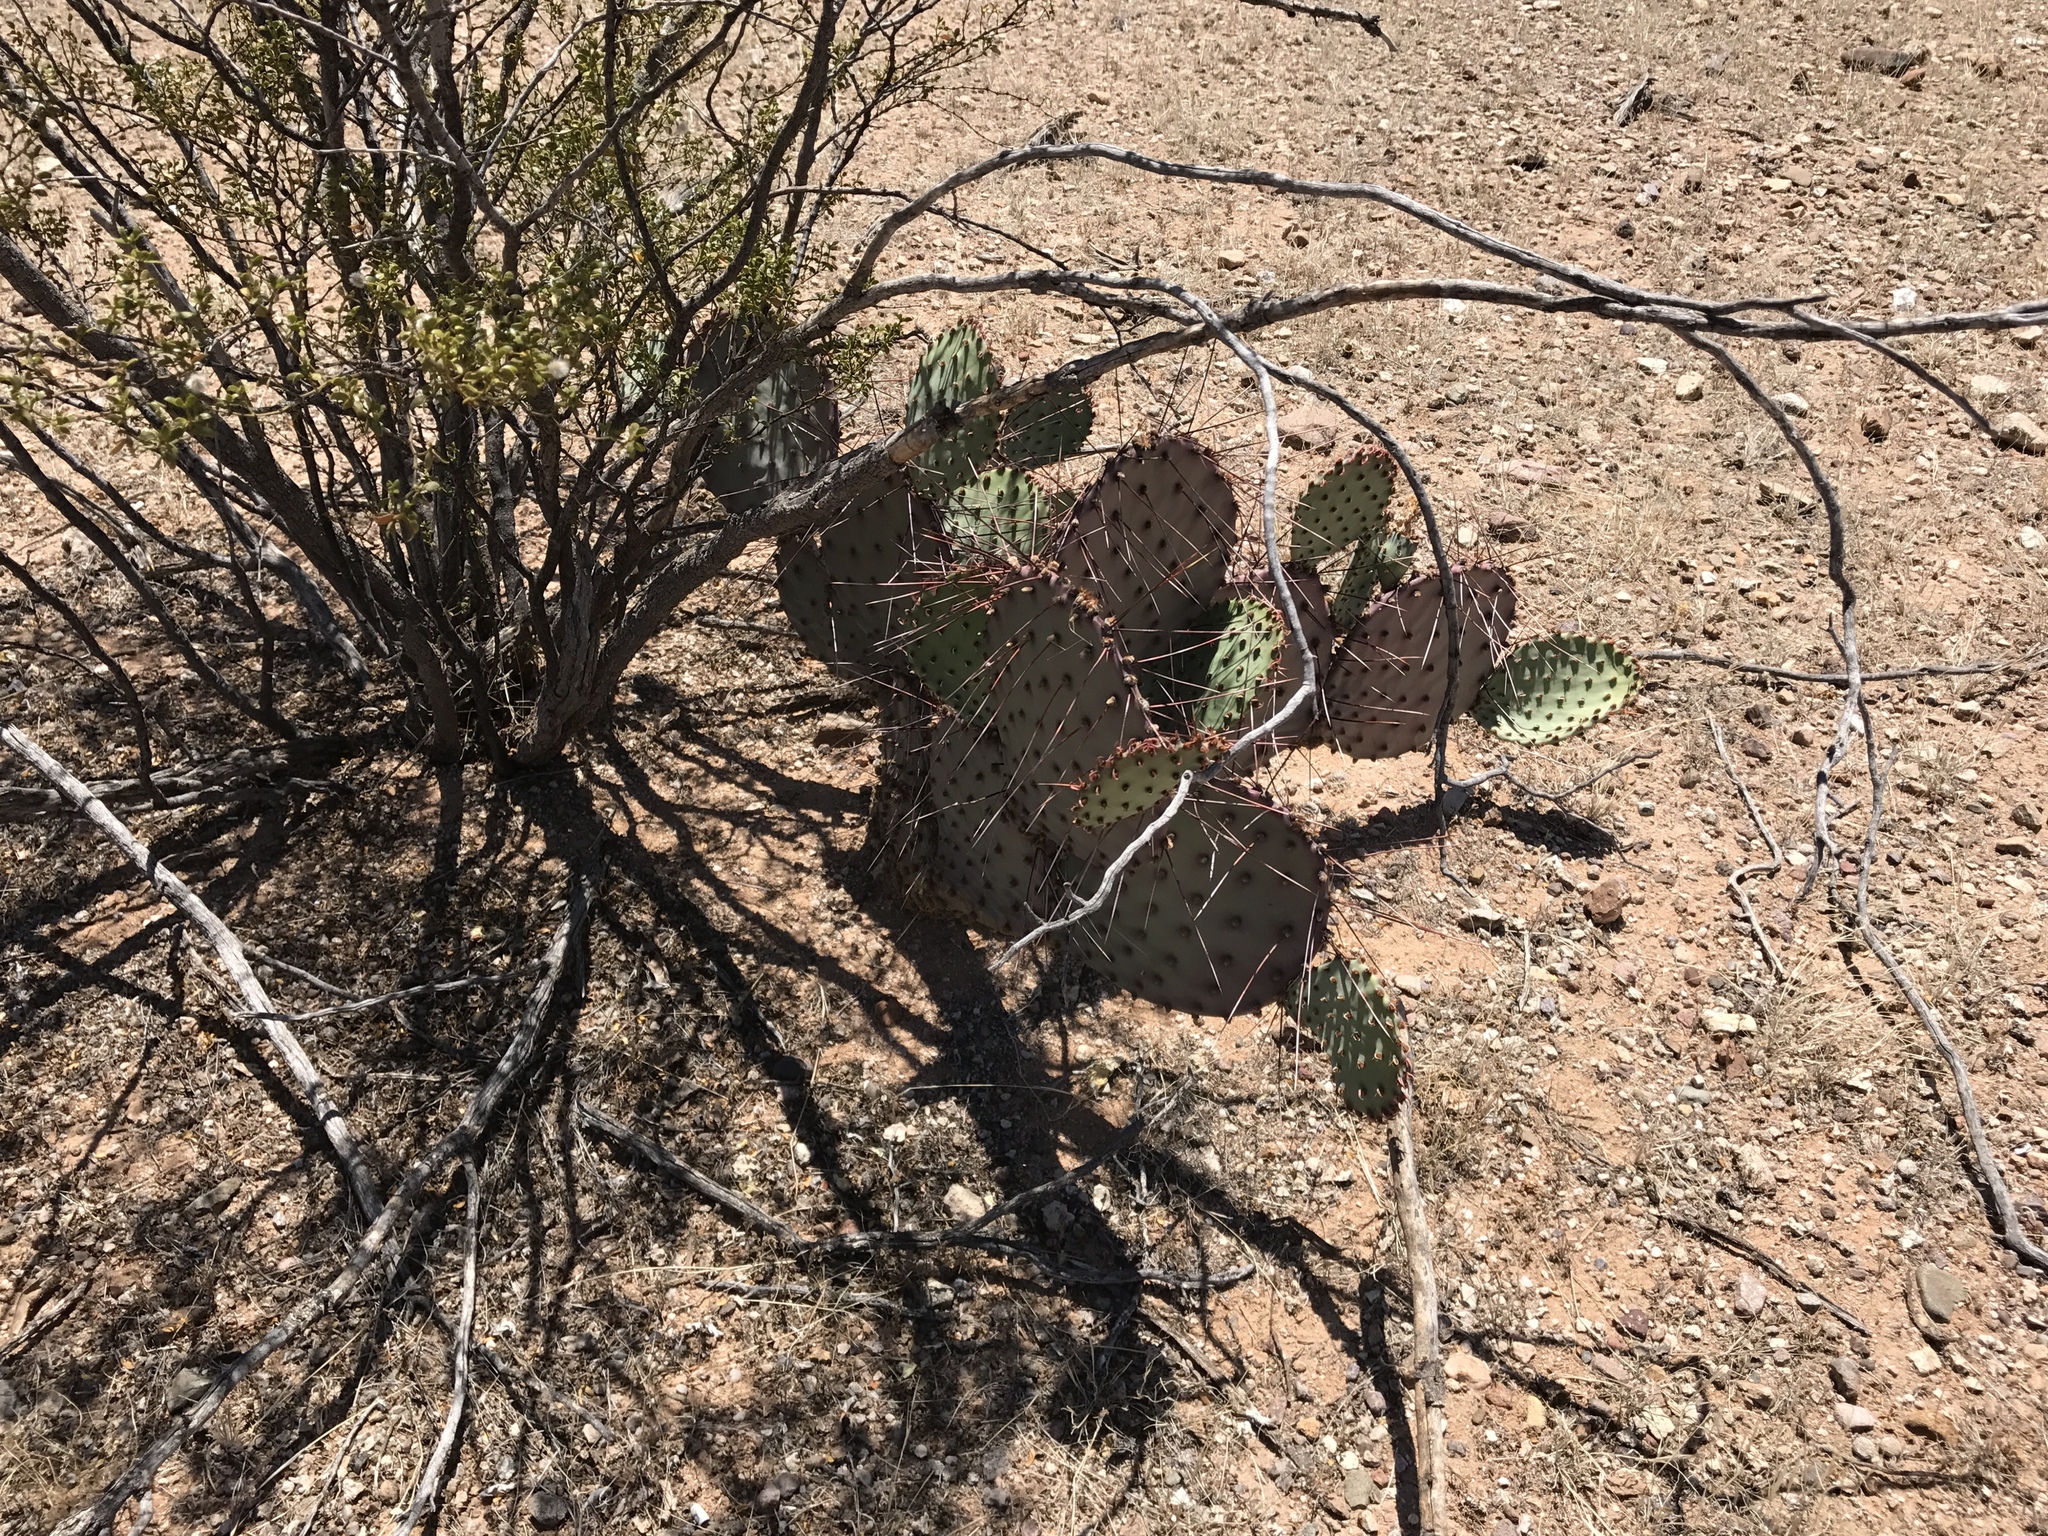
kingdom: Plantae
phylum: Tracheophyta
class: Magnoliopsida
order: Caryophyllales
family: Cactaceae
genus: Opuntia
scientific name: Opuntia macrocentra
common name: Purple prickly-pear
